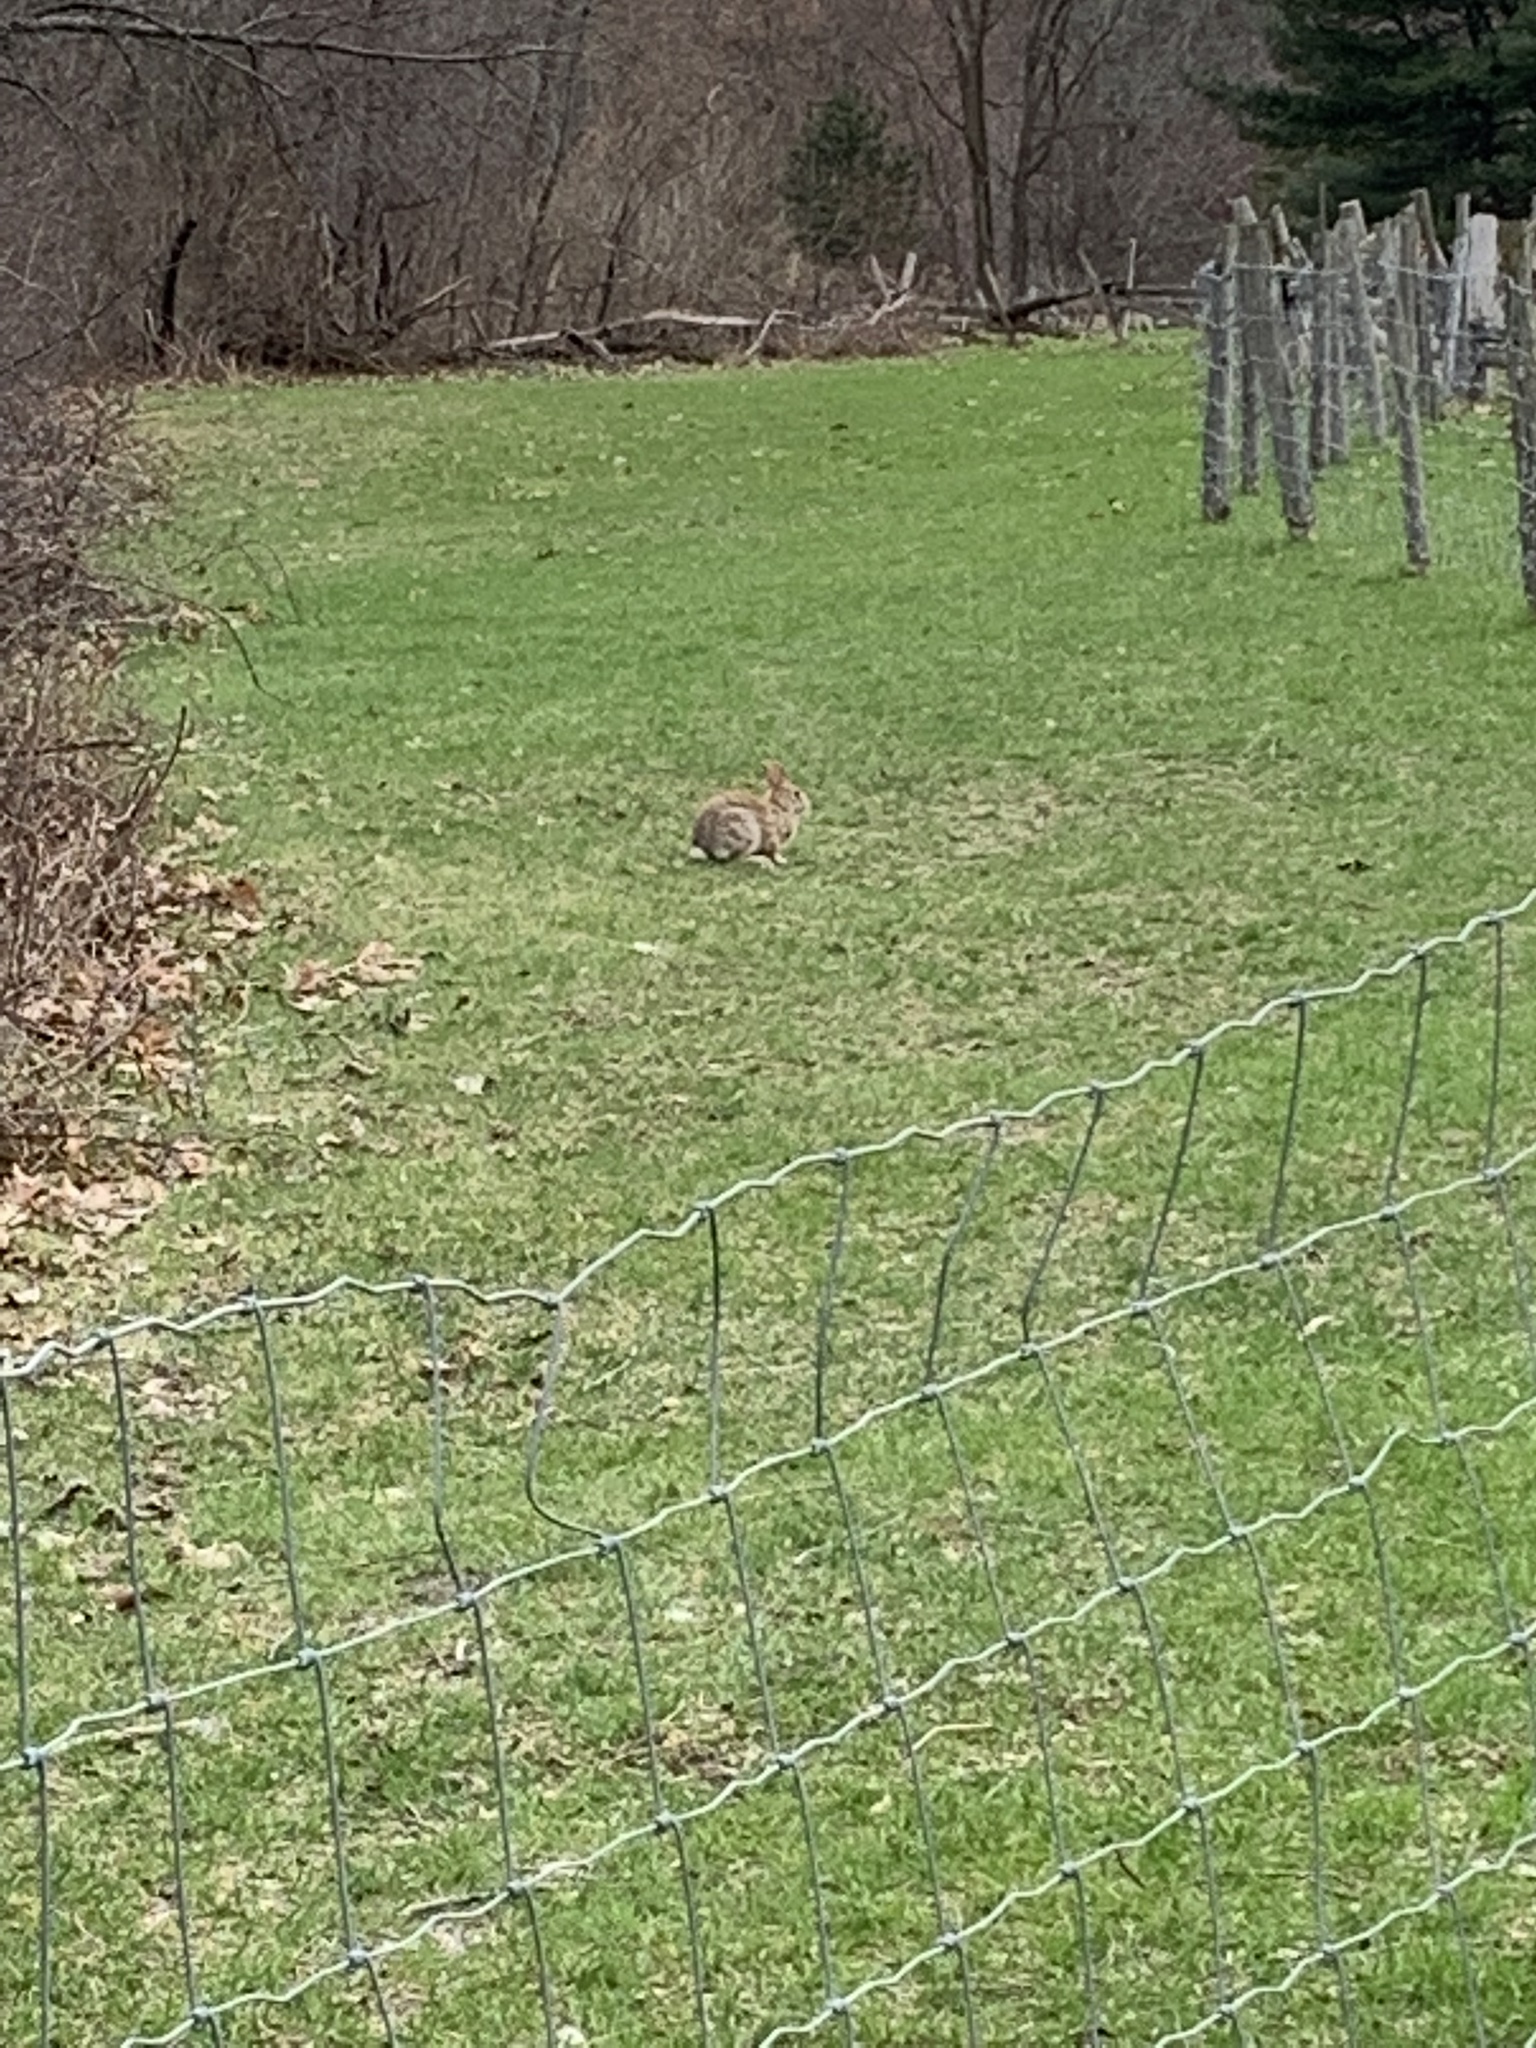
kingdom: Animalia
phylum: Chordata
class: Mammalia
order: Lagomorpha
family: Leporidae
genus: Sylvilagus
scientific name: Sylvilagus floridanus
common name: Eastern cottontail
